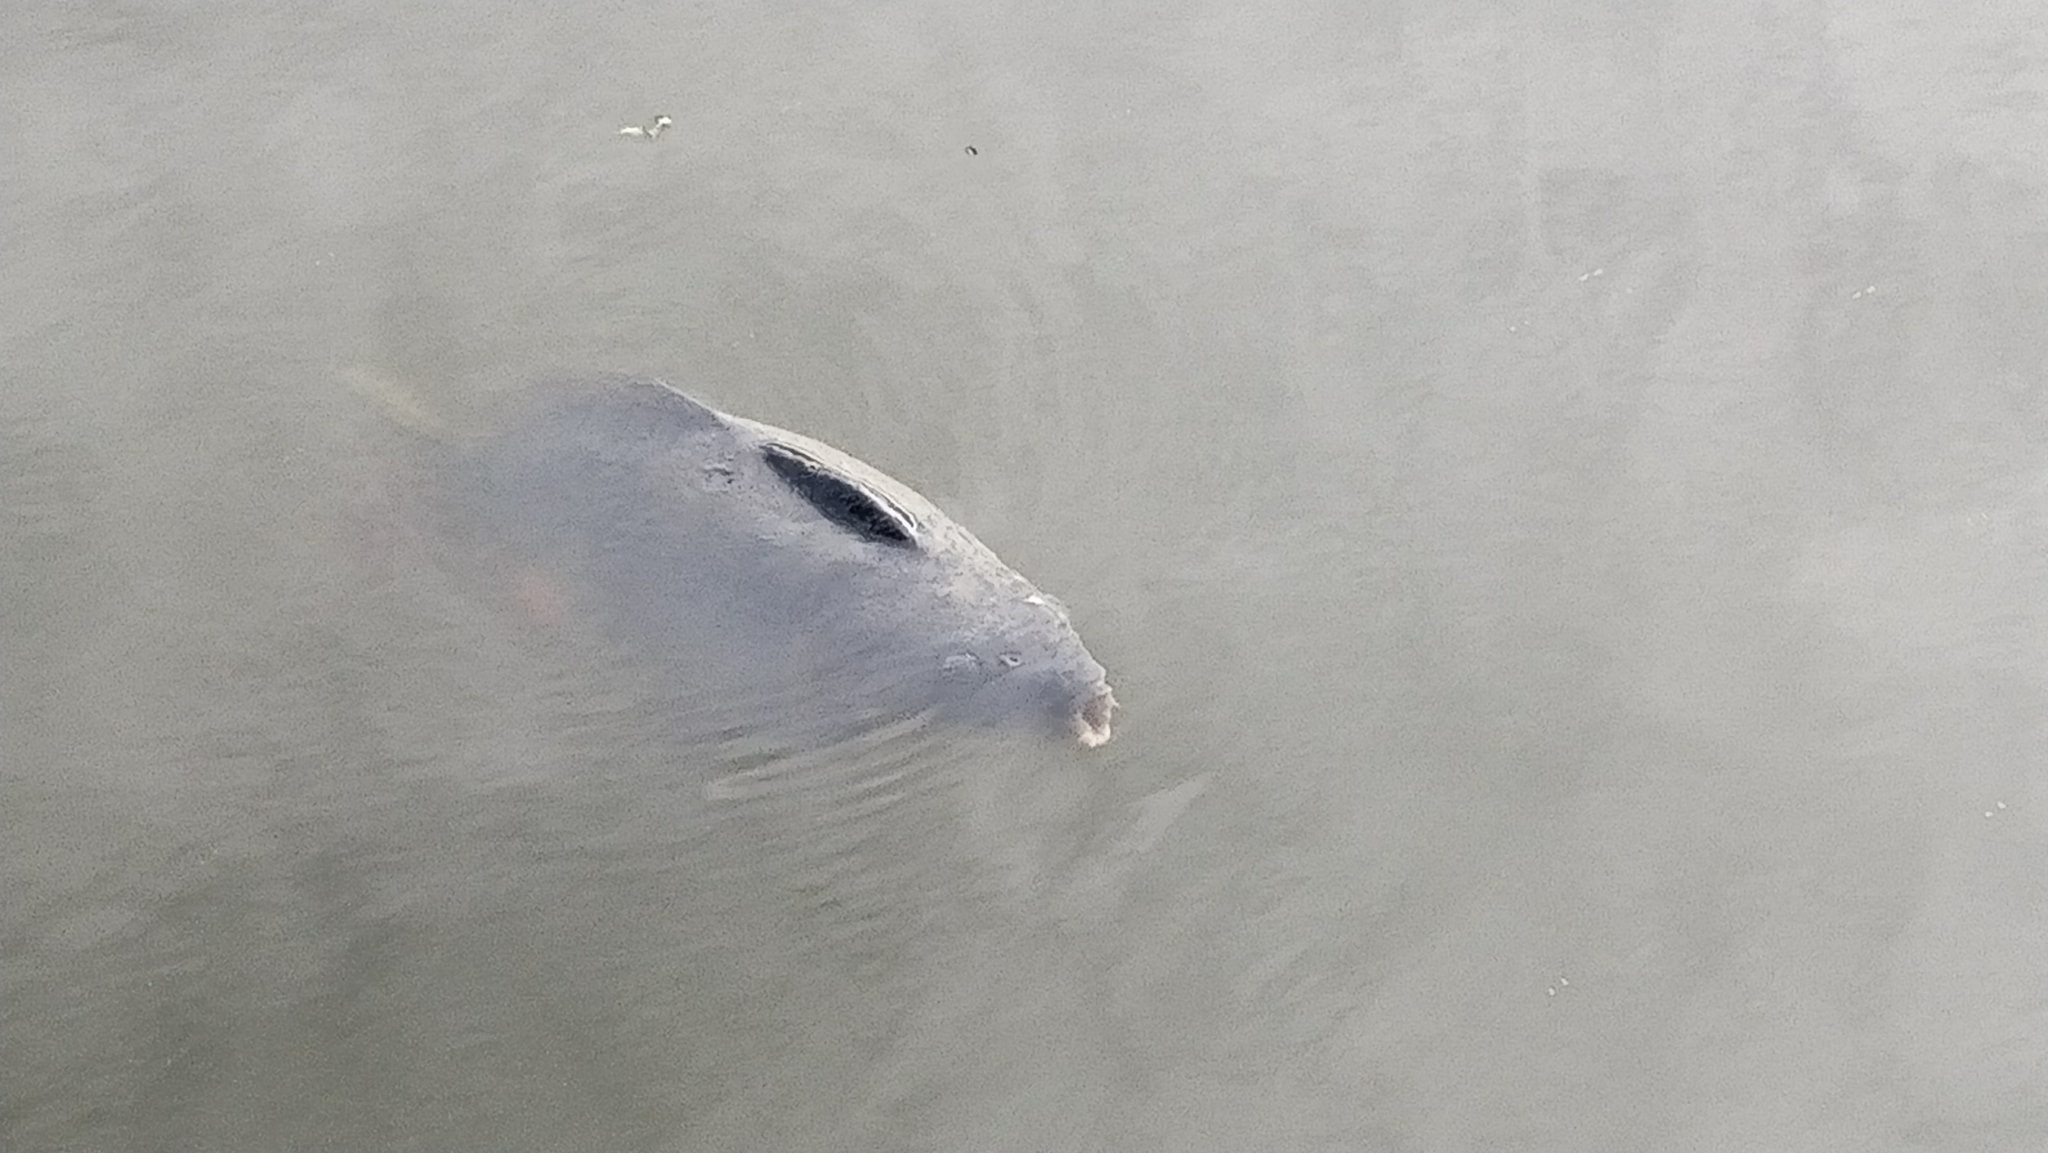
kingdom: Animalia
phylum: Chordata
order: Cypriniformes
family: Cyprinidae
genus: Cyprinus
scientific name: Cyprinus carpio
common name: Common carp
